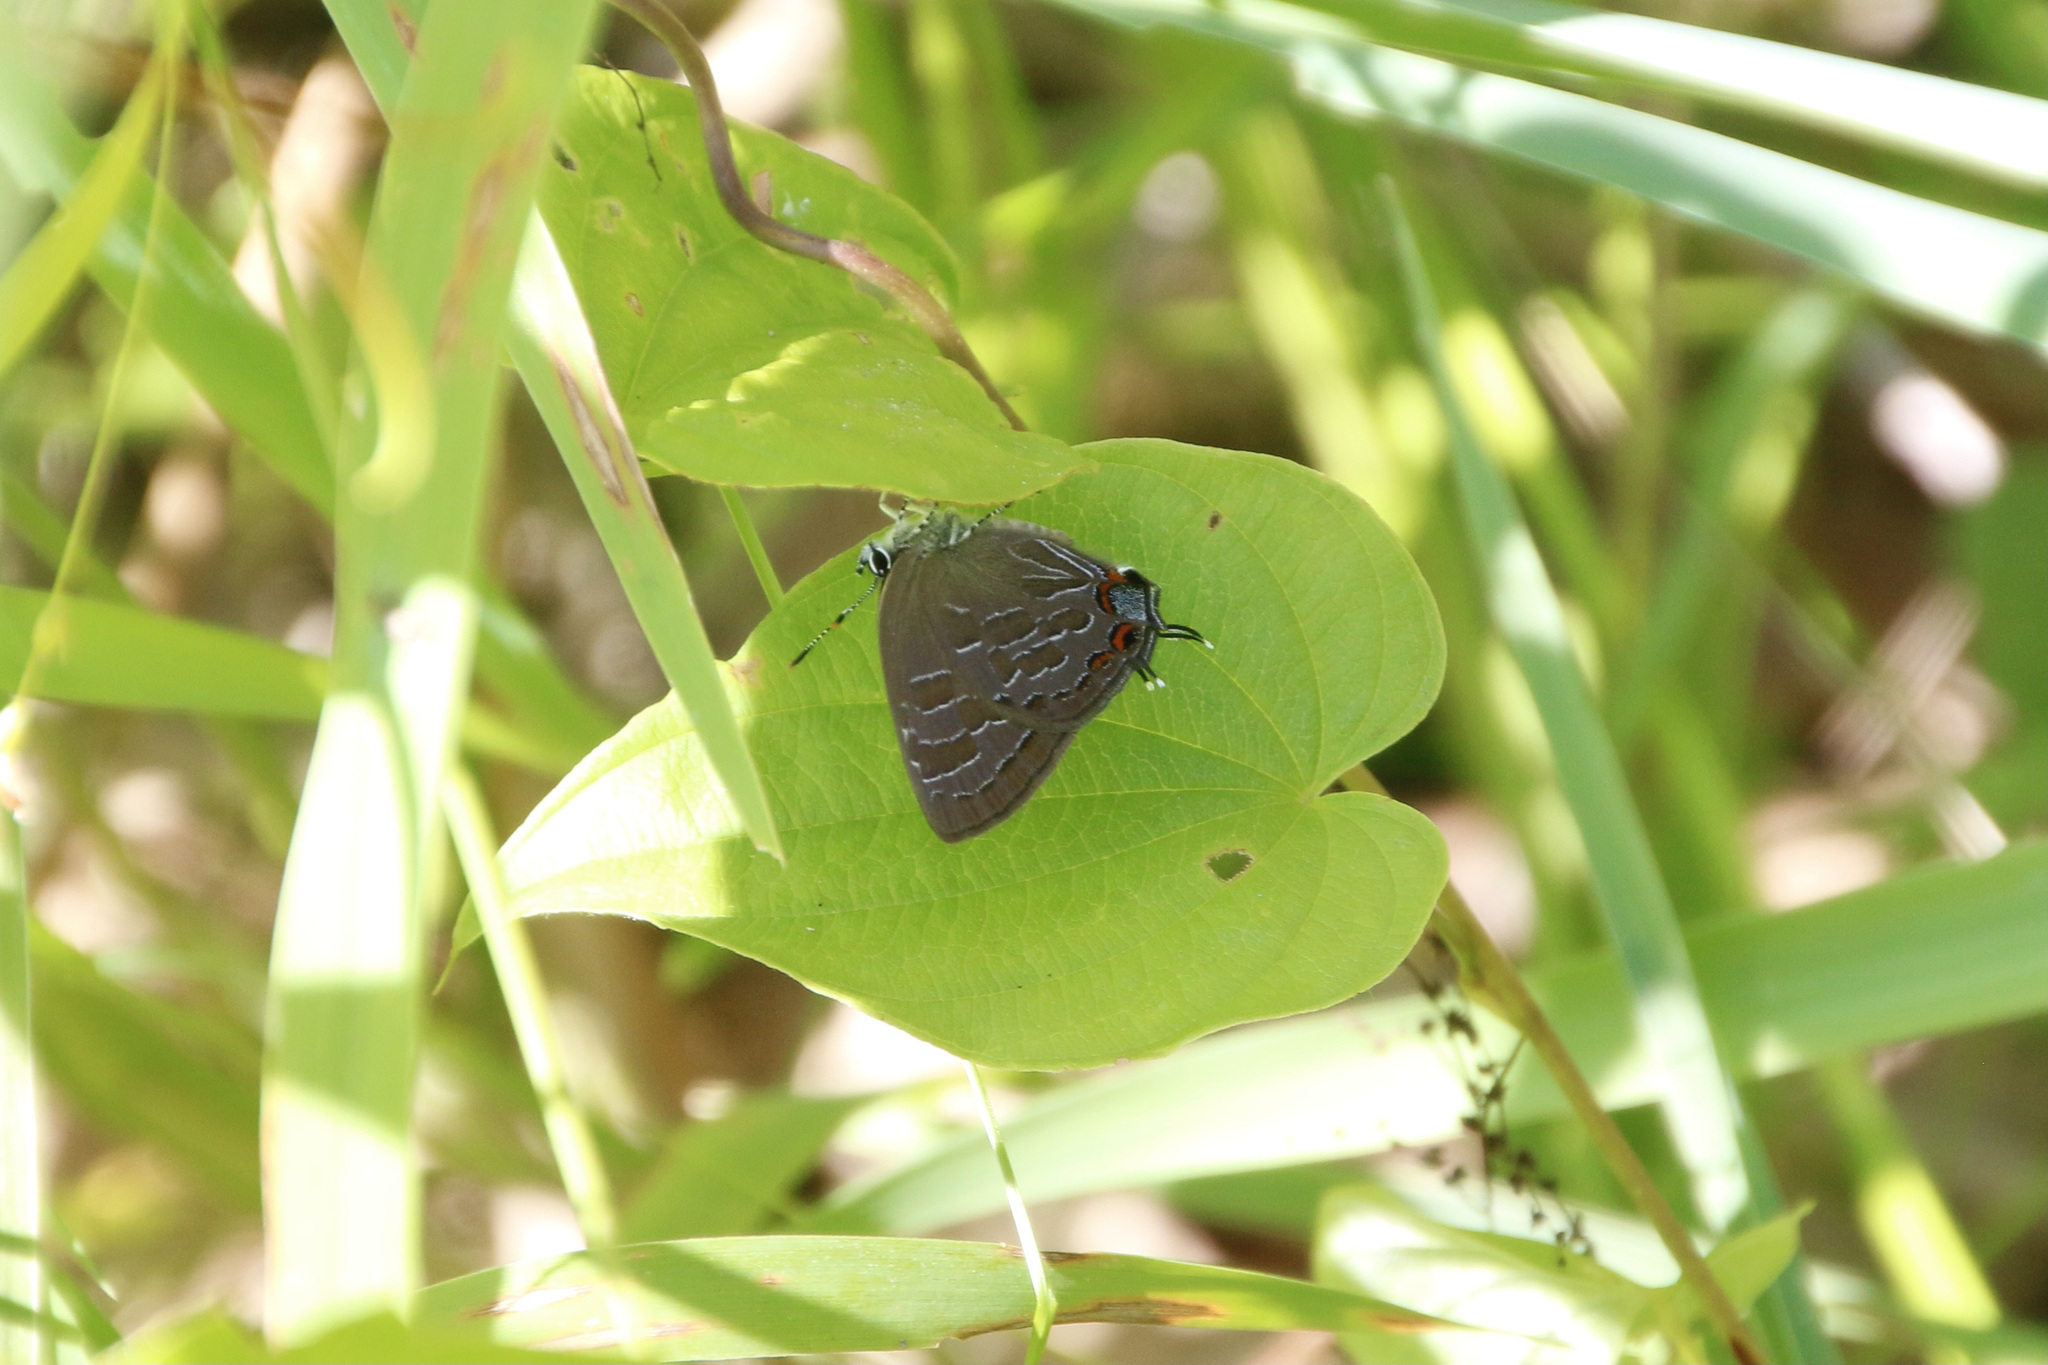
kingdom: Animalia
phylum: Arthropoda
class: Insecta
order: Lepidoptera
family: Lycaenidae
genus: Satyrium
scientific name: Satyrium liparops
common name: Striped hairstreak
